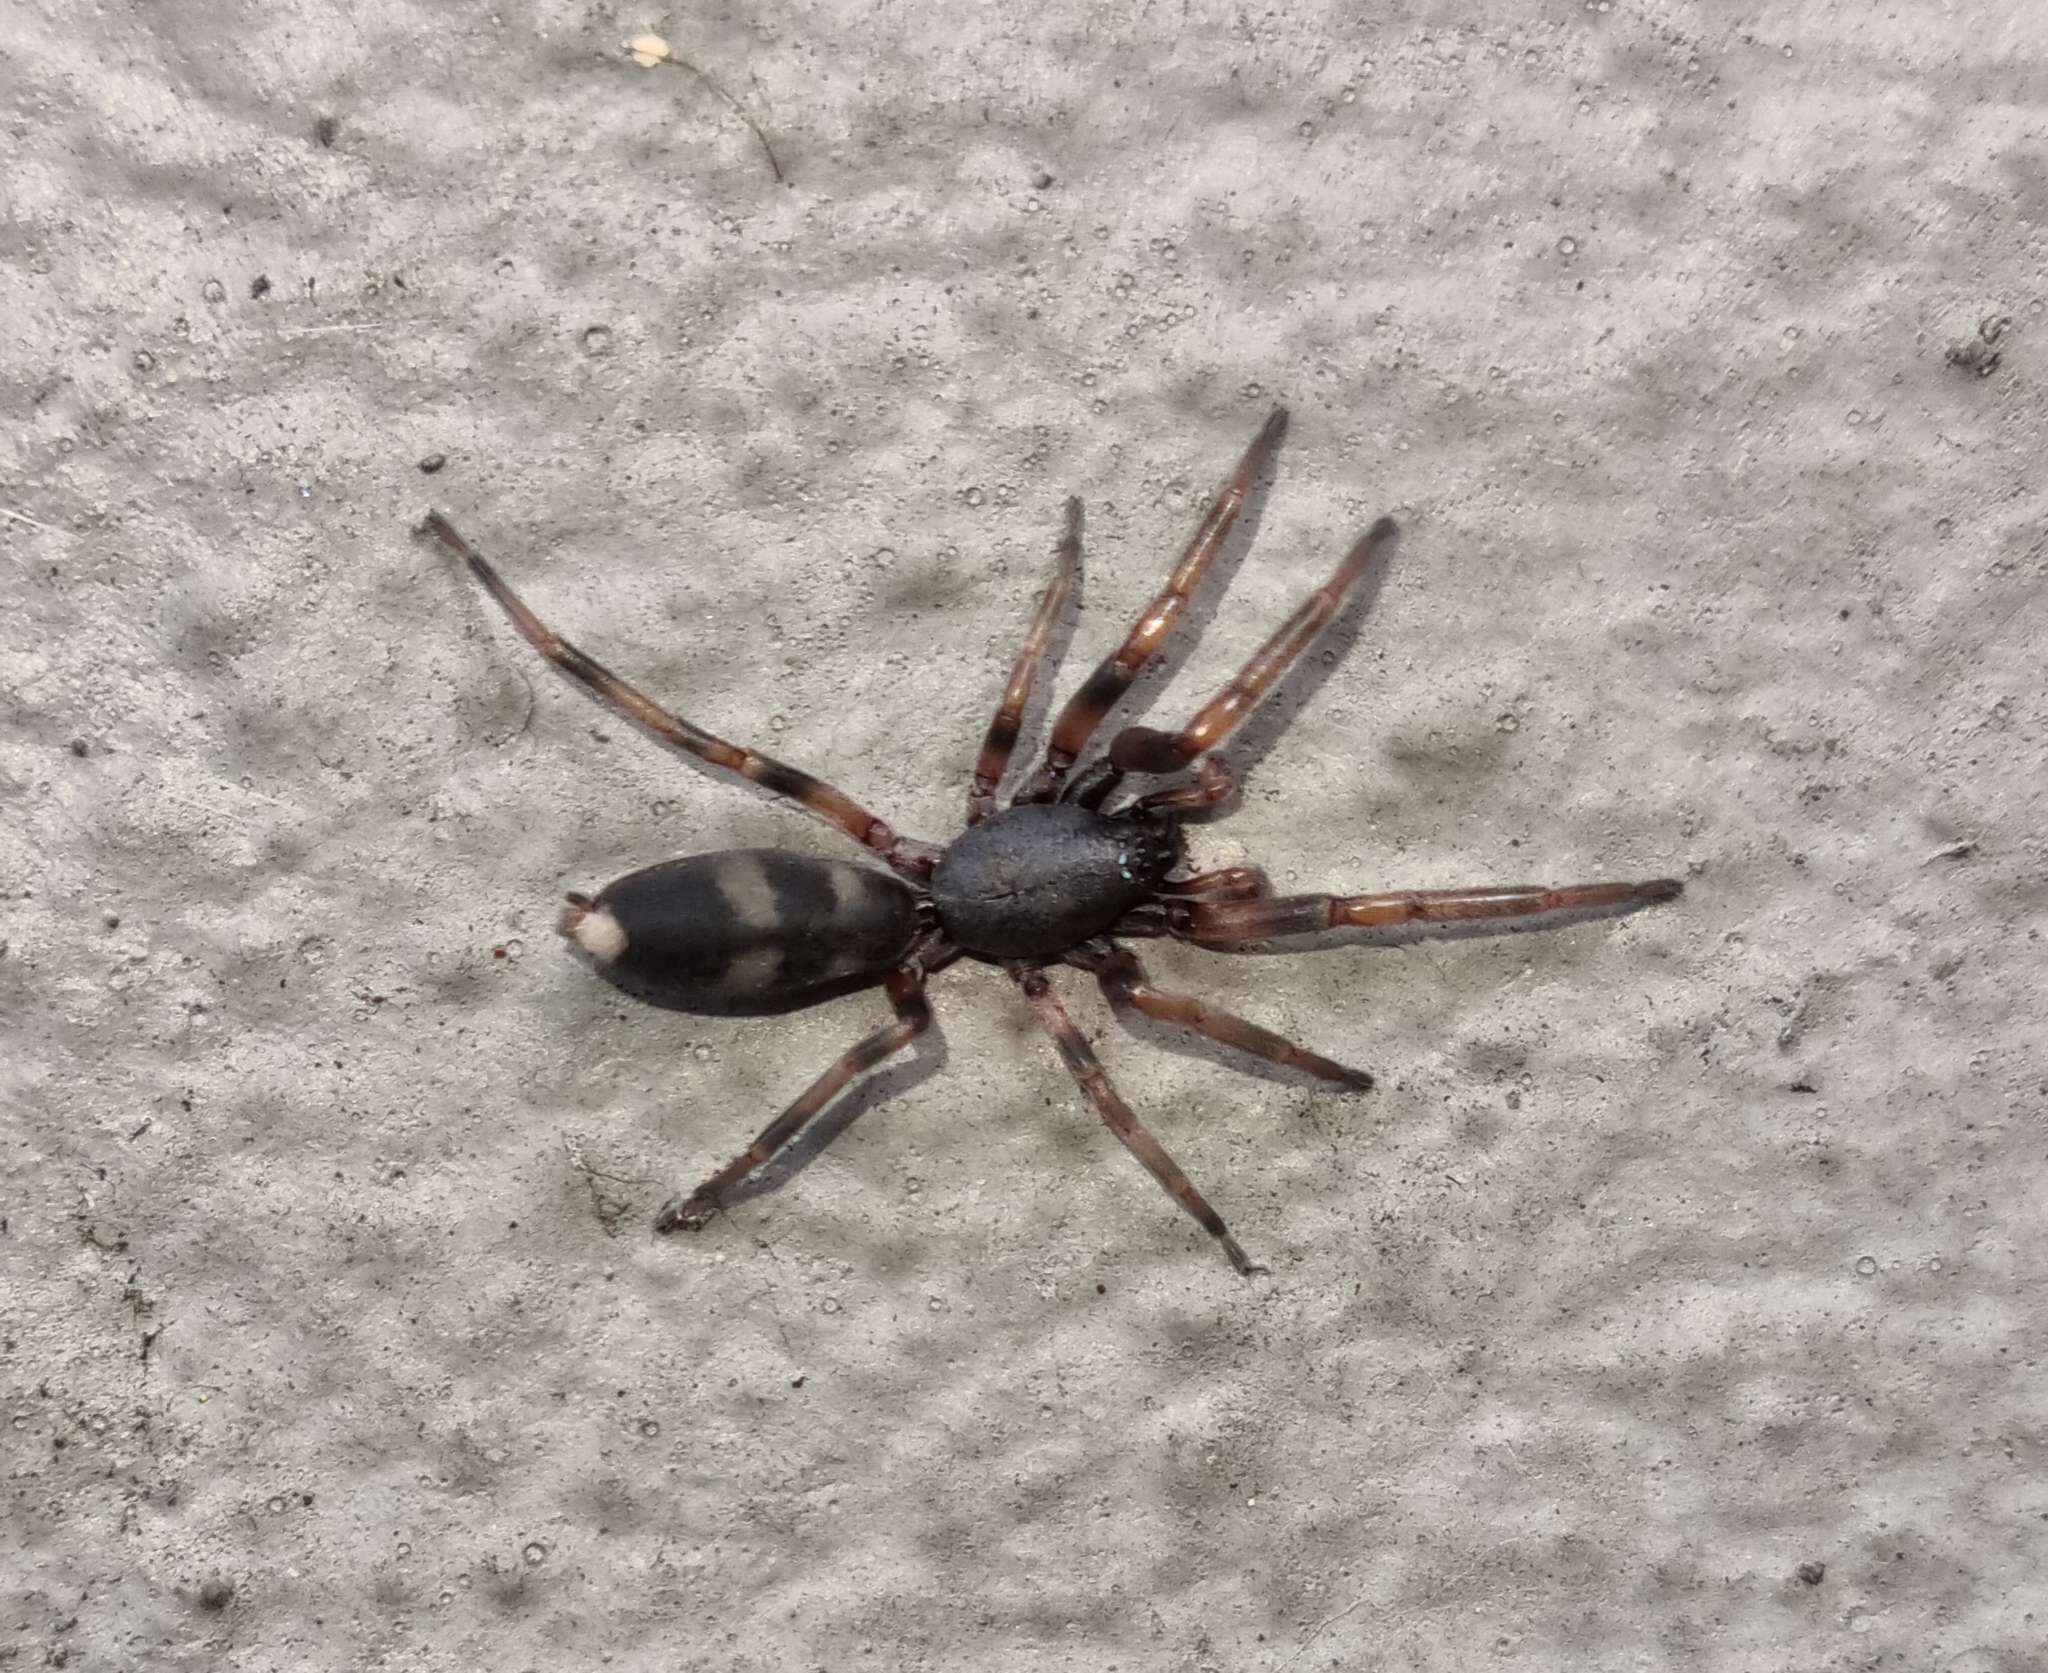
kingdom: Animalia
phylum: Arthropoda
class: Arachnida
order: Araneae
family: Lamponidae
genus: Lampona
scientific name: Lampona murina
